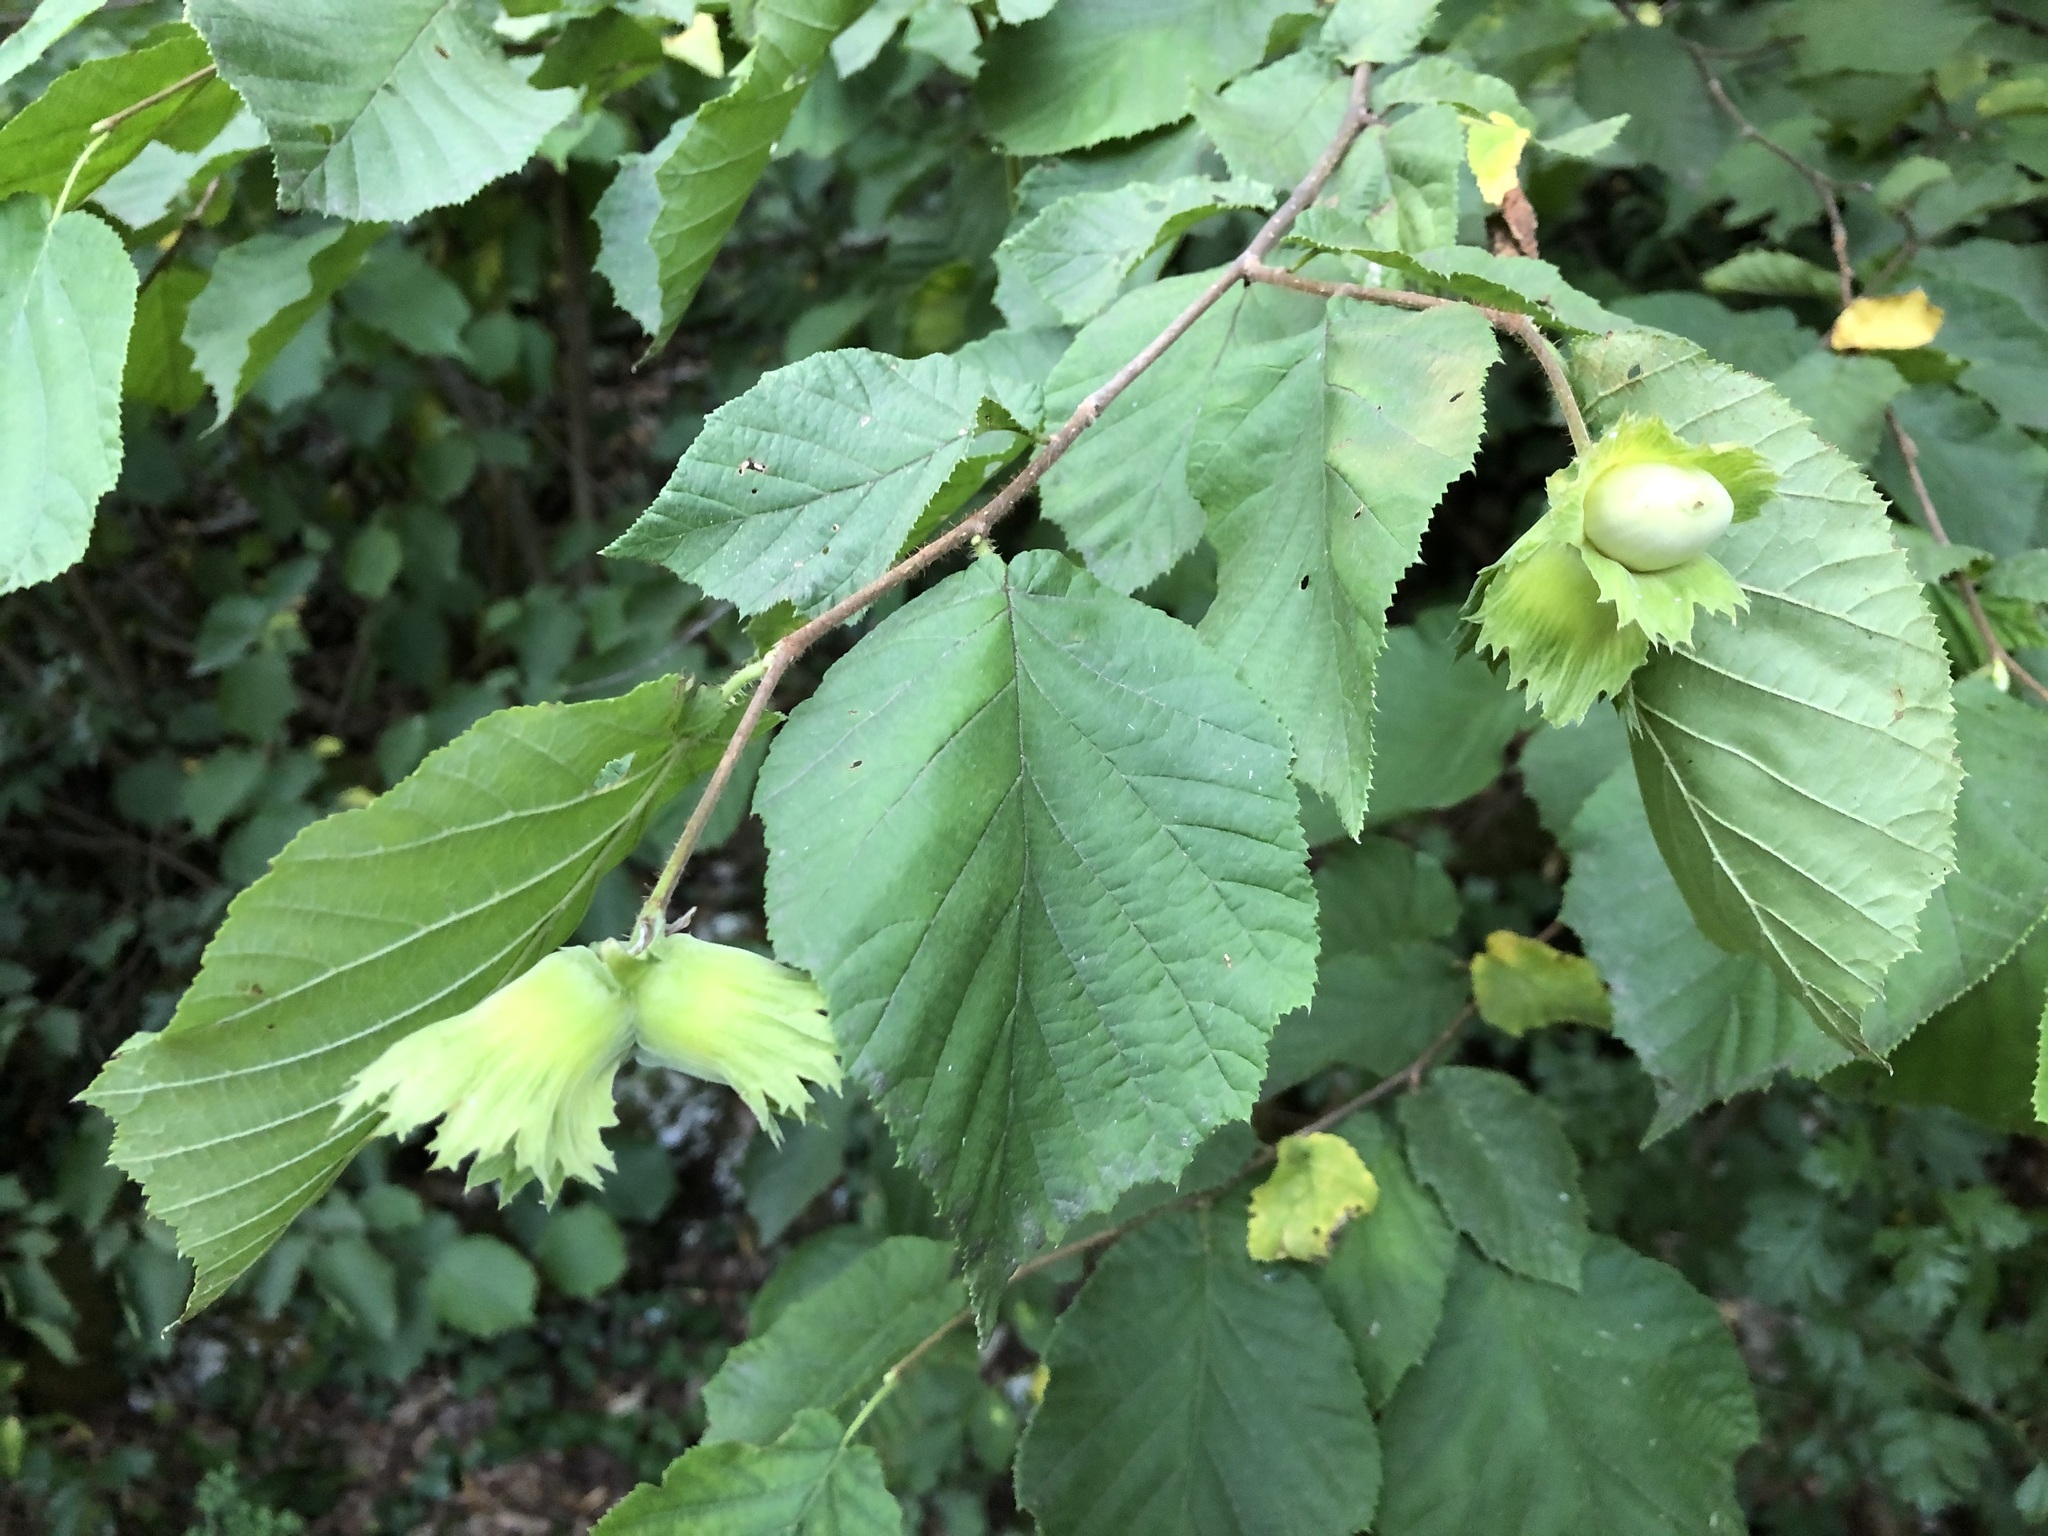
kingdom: Plantae
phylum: Tracheophyta
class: Magnoliopsida
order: Fagales
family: Betulaceae
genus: Corylus
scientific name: Corylus avellana
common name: European hazel
